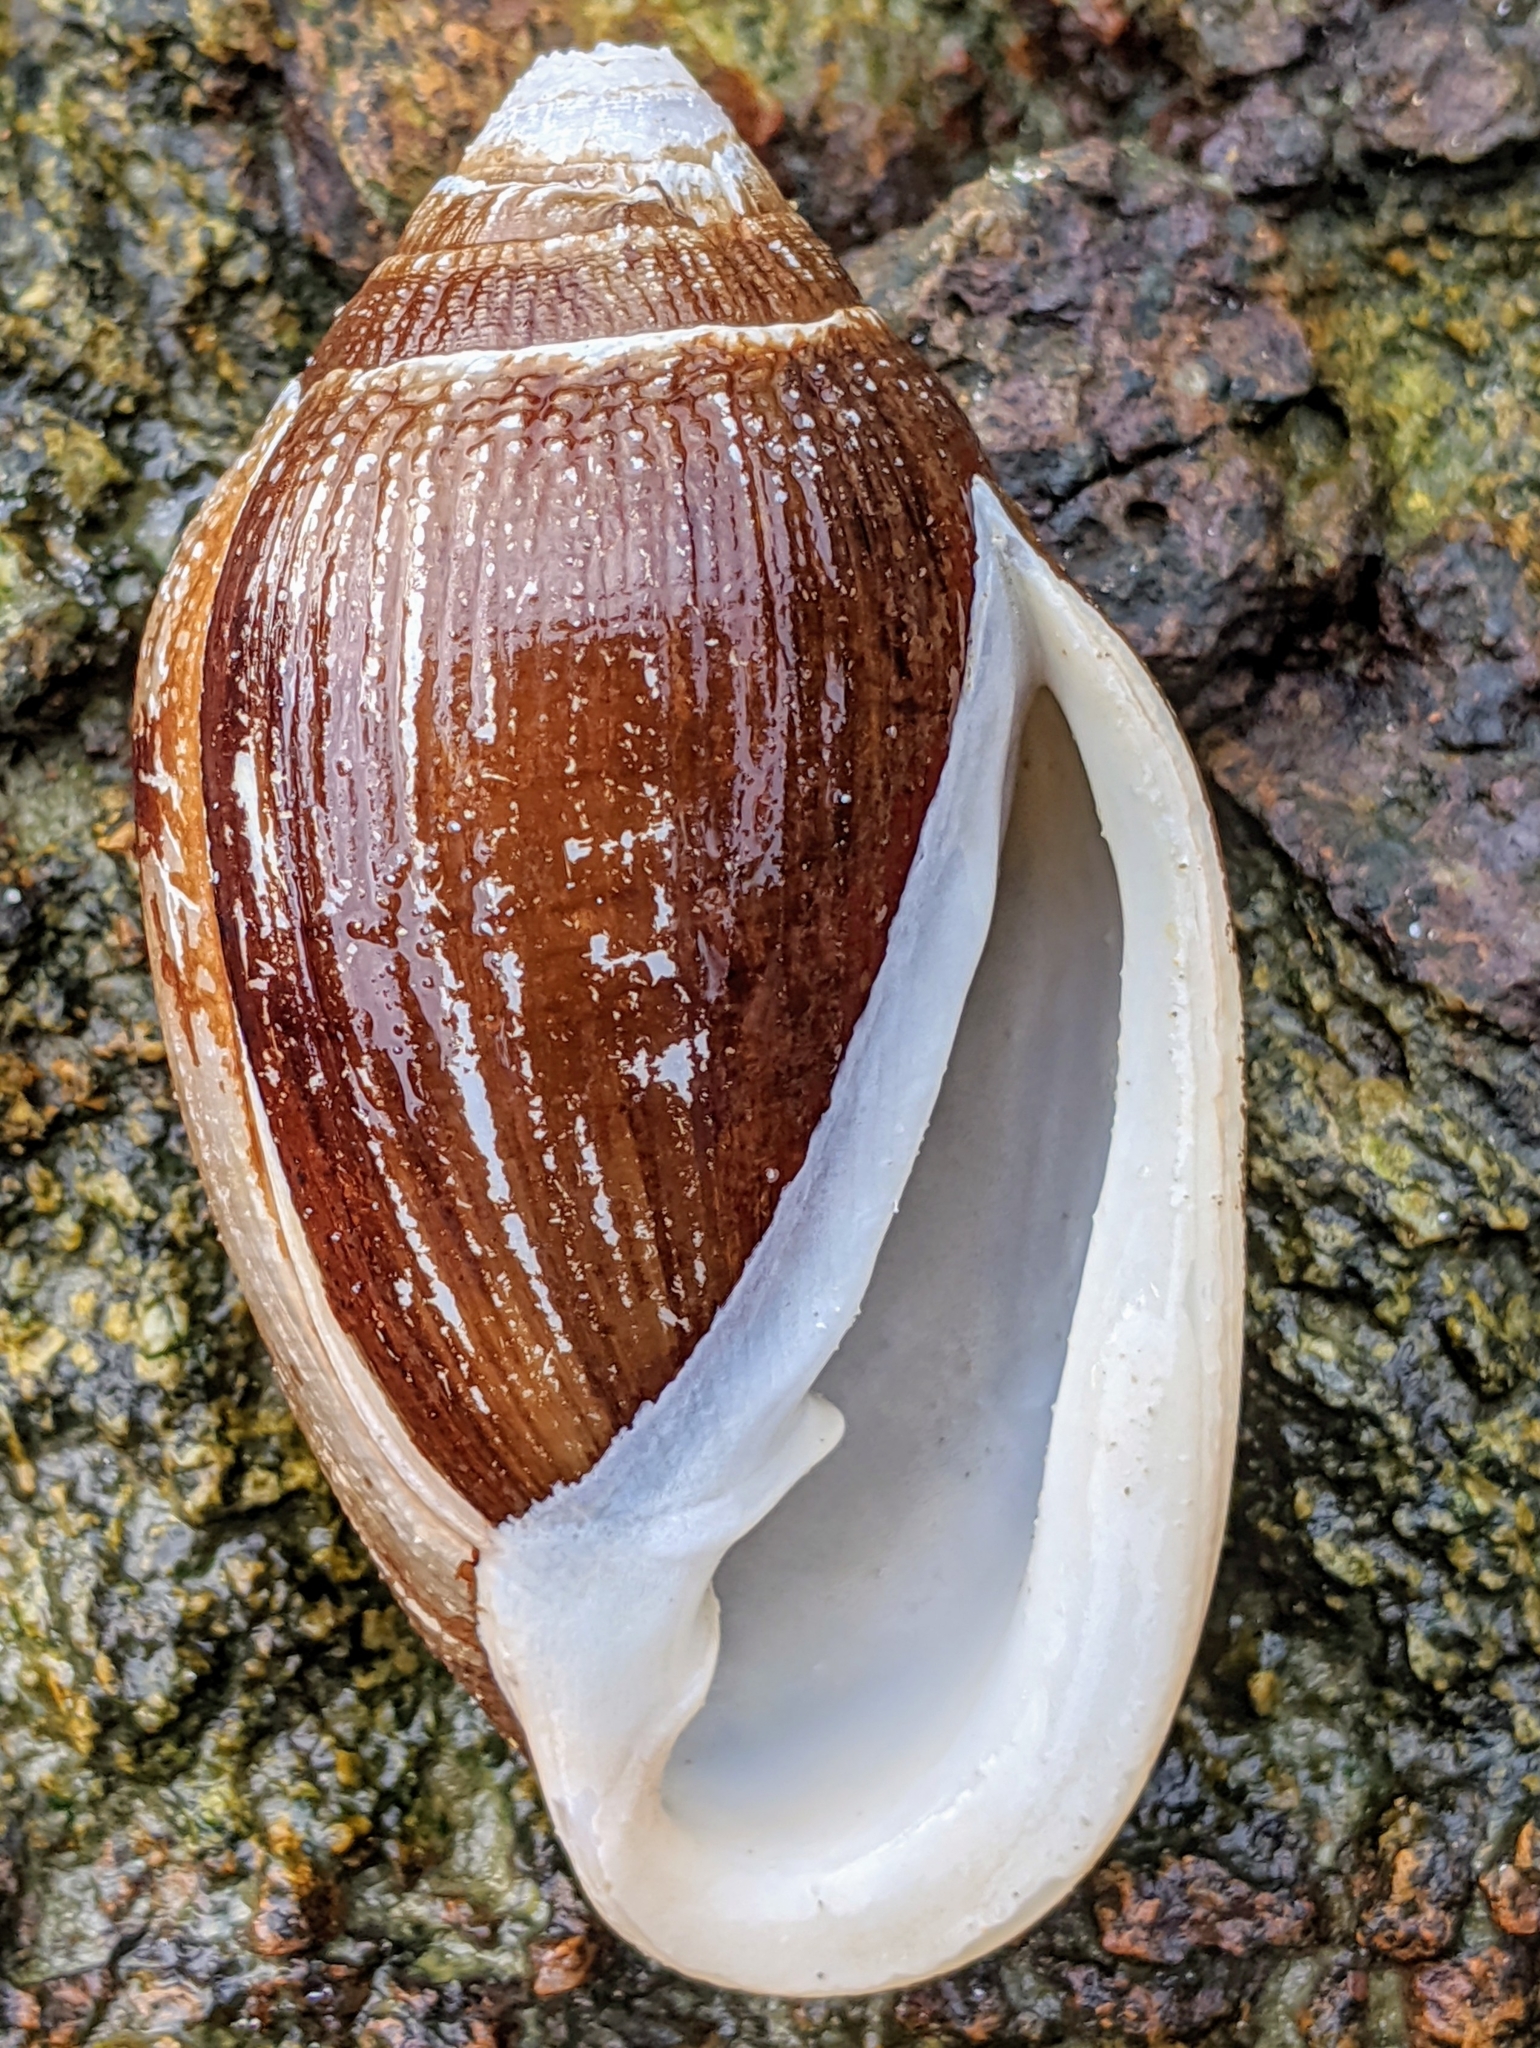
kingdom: Animalia
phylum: Mollusca
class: Gastropoda
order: Ellobiida
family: Ellobiidae
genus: Ellobium
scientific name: Ellobium aurisjudae
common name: Judas ear cassidula
